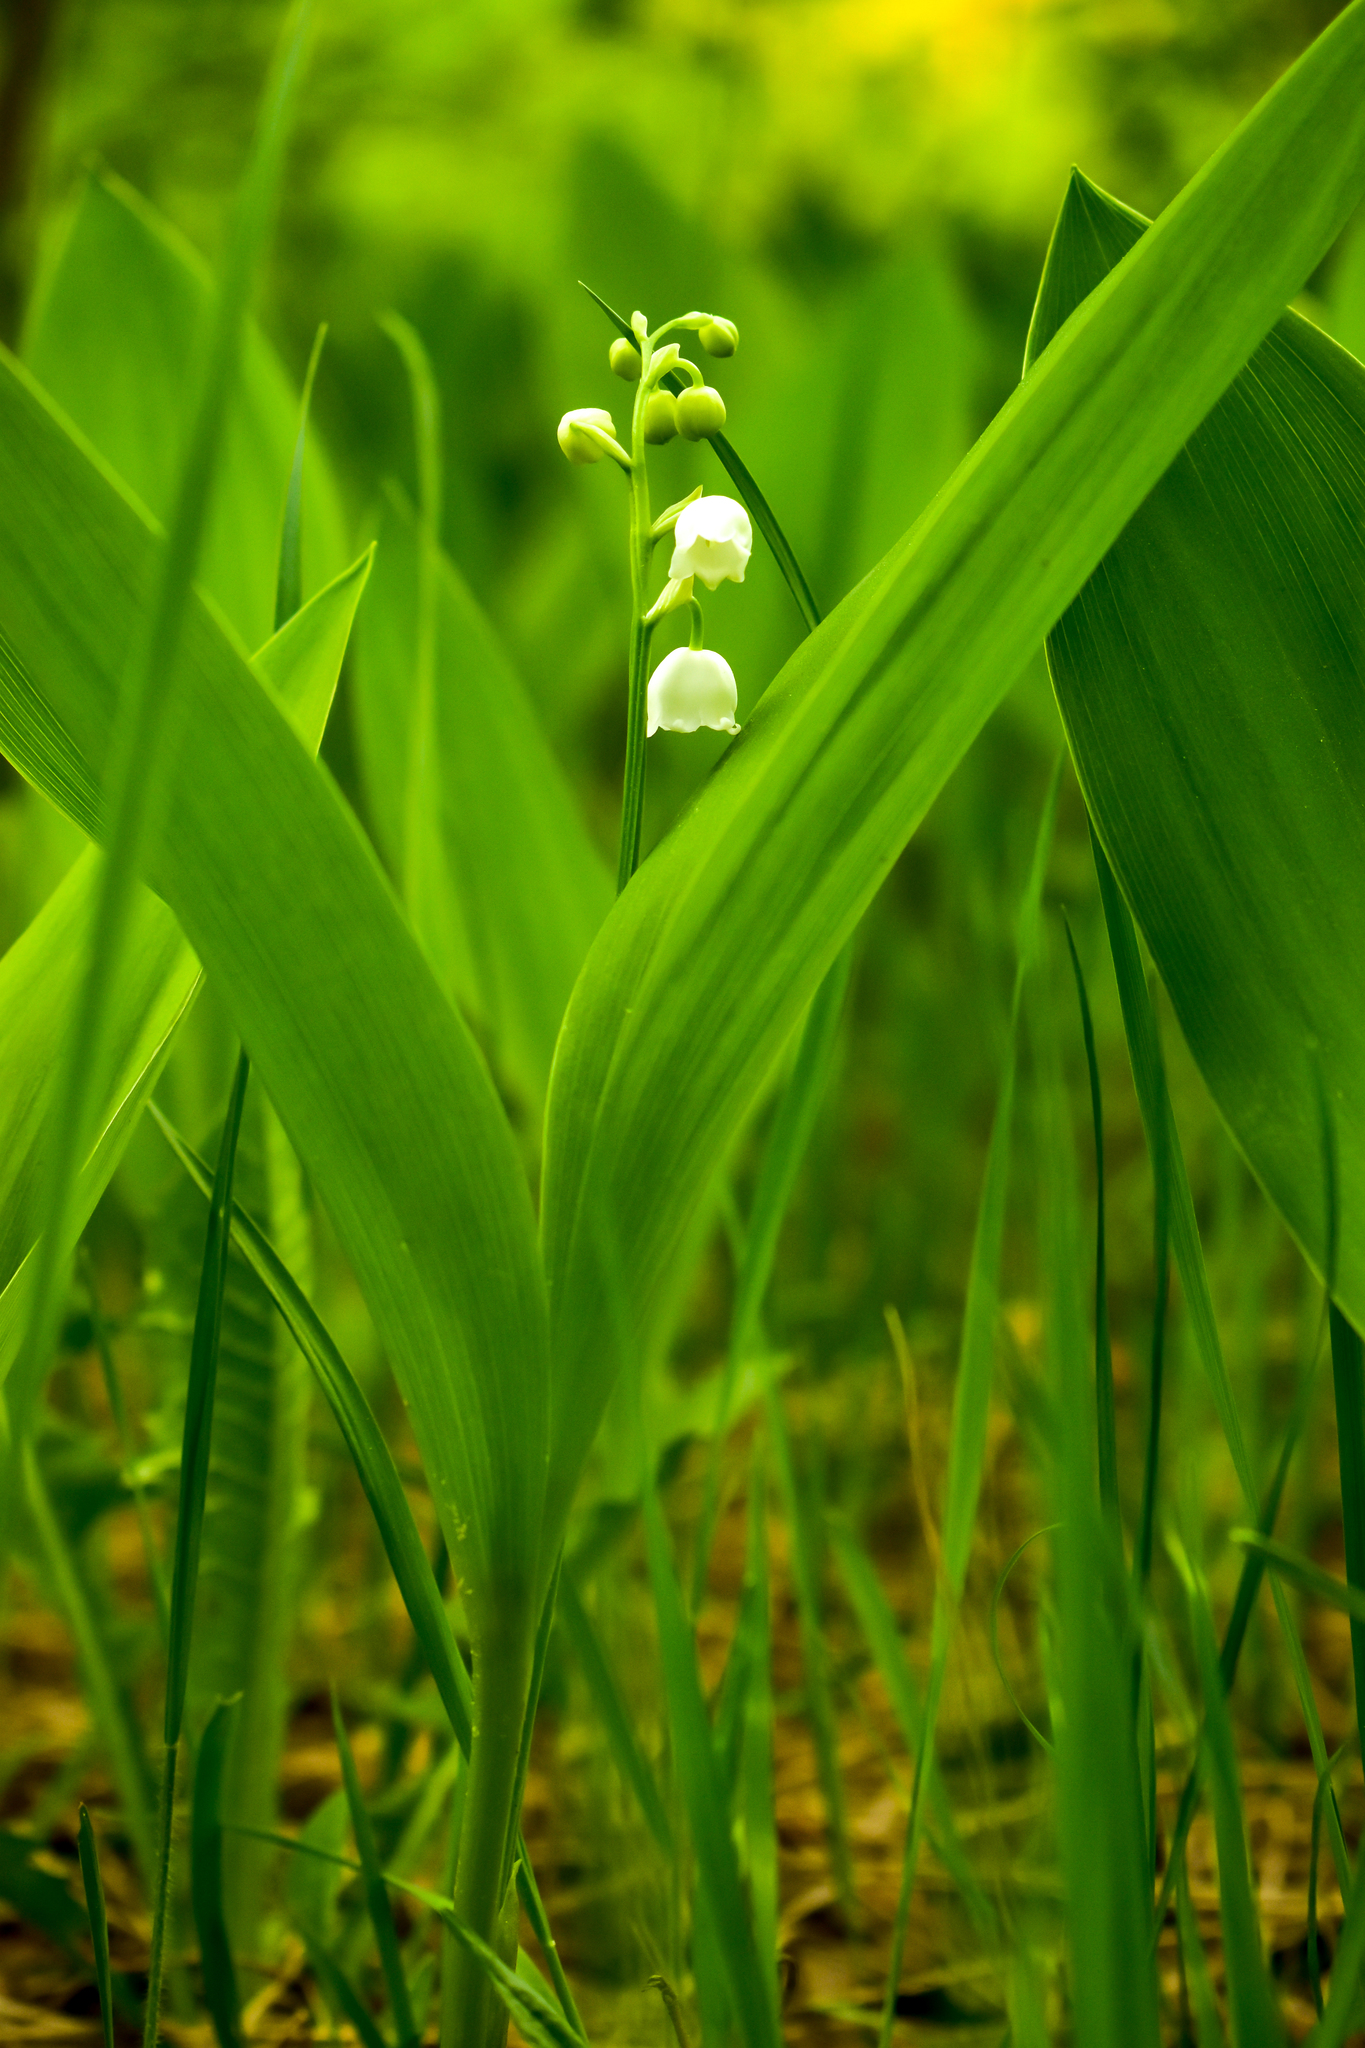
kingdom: Plantae
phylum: Tracheophyta
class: Liliopsida
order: Asparagales
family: Asparagaceae
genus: Convallaria
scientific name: Convallaria majalis
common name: Lily-of-the-valley
